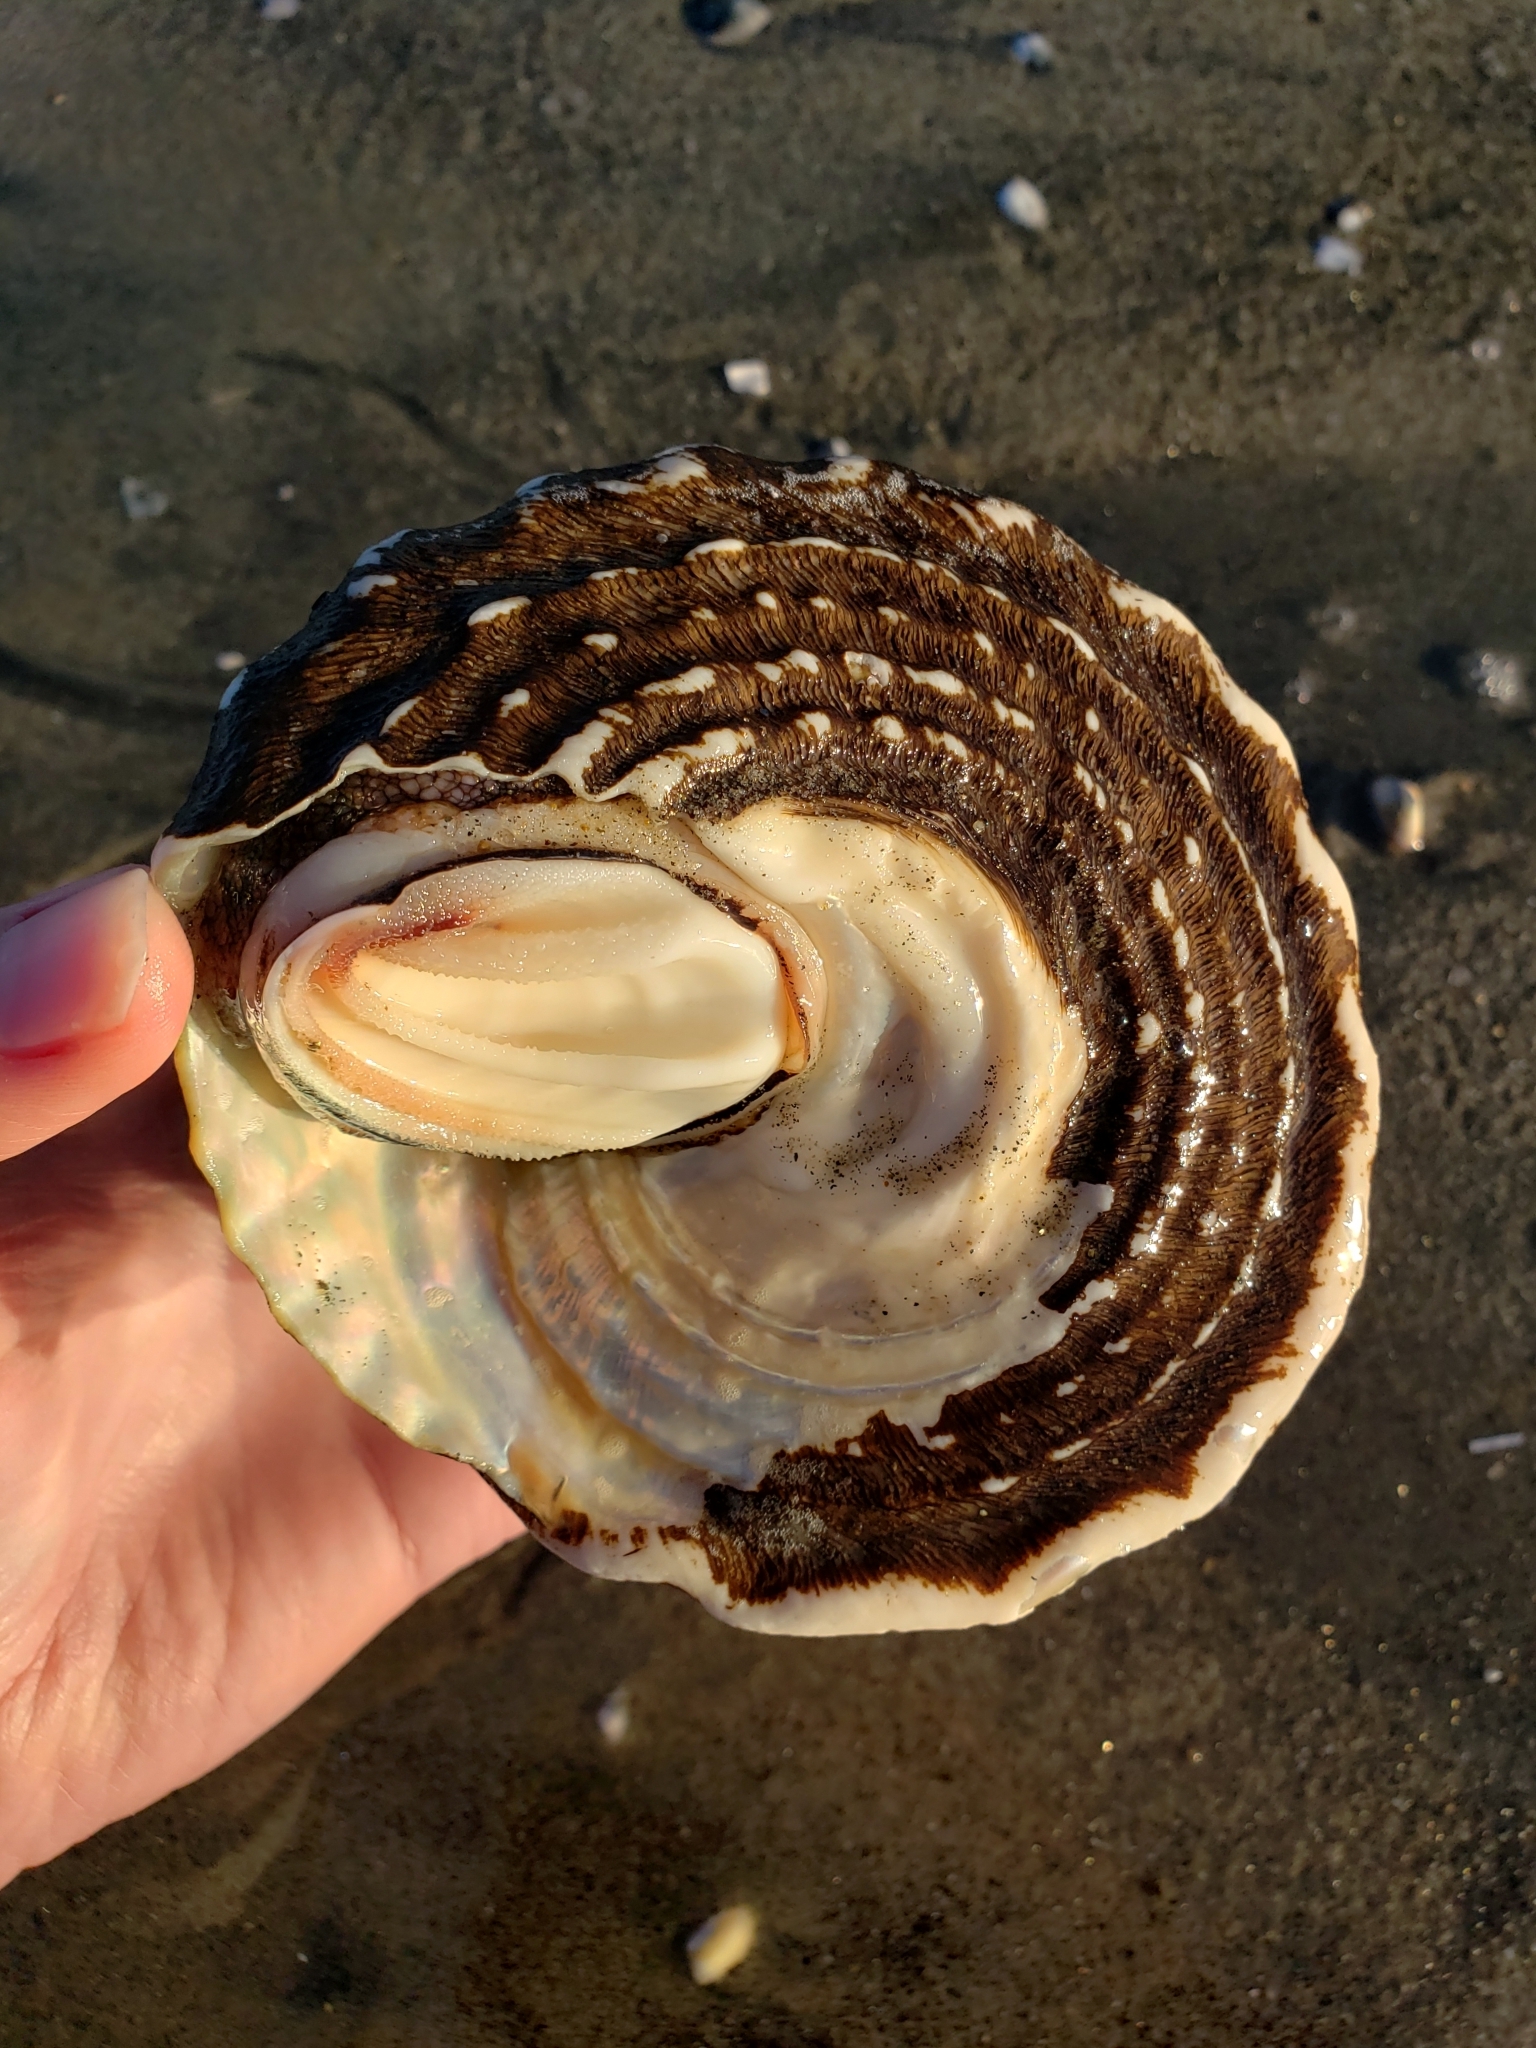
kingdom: Animalia
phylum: Mollusca
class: Gastropoda
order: Trochida
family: Turbinidae
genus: Megastraea
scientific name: Megastraea undosa
